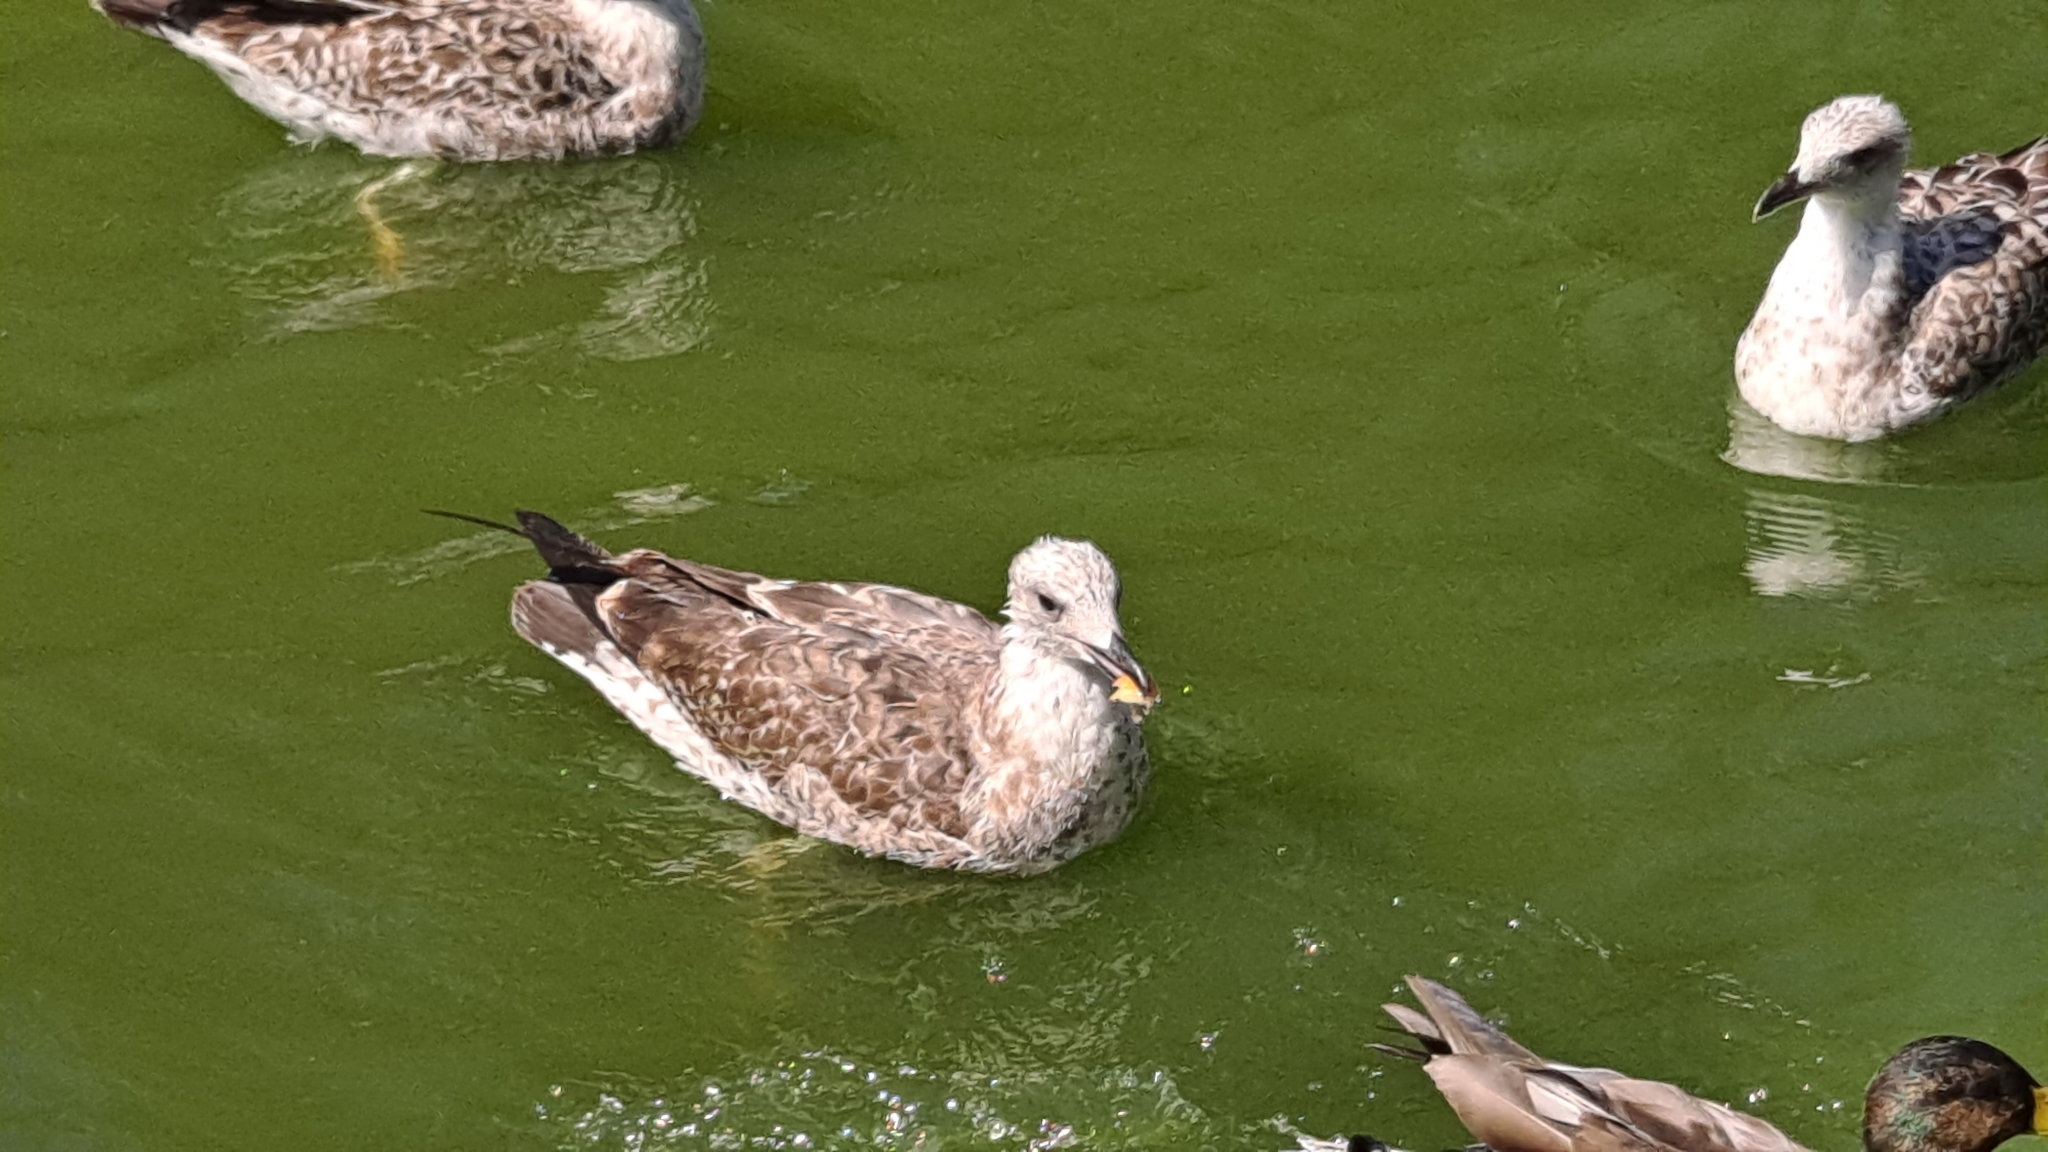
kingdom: Animalia
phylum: Chordata
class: Aves
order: Charadriiformes
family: Laridae
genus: Larus
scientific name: Larus michahellis
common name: Yellow-legged gull
